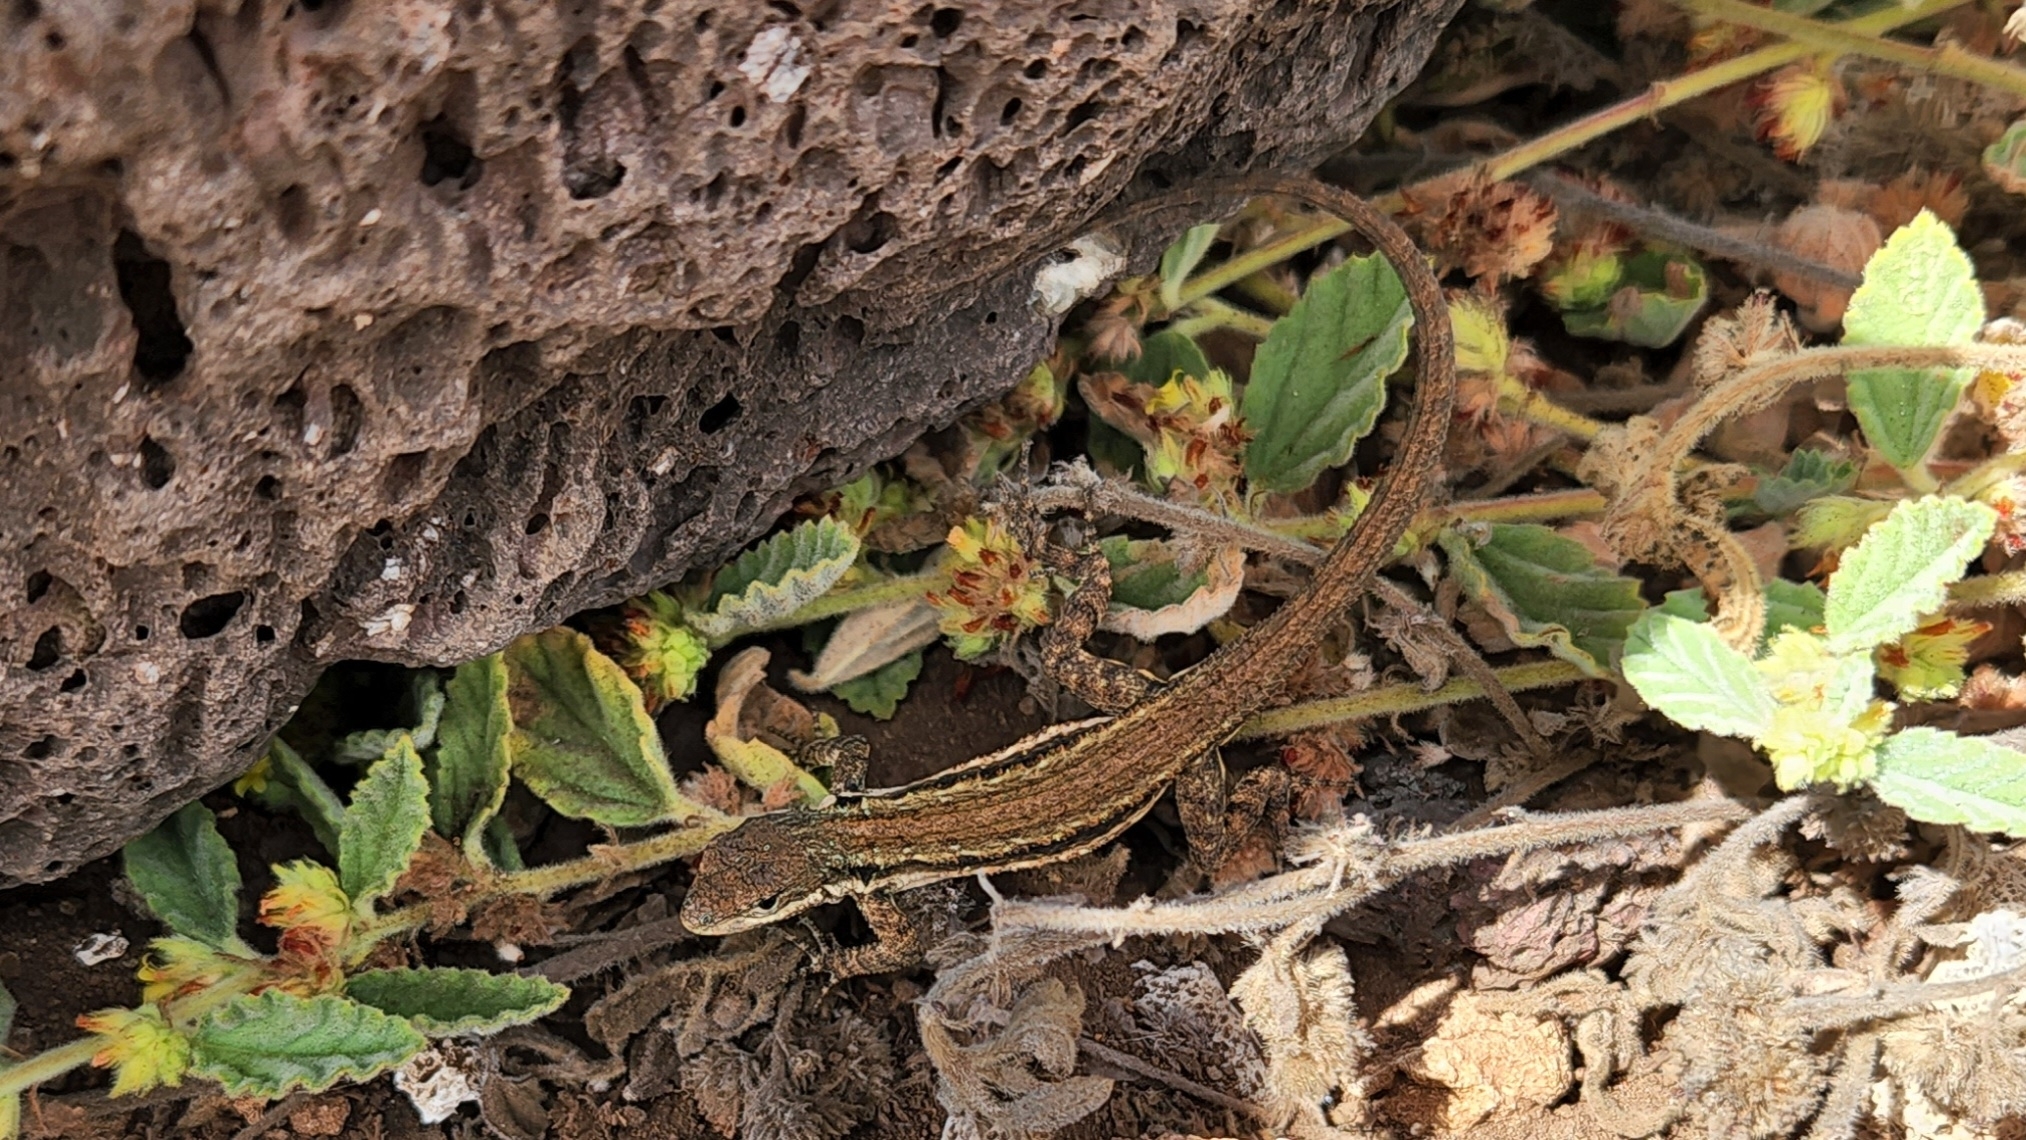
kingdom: Animalia
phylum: Chordata
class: Squamata
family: Phrynosomatidae
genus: Urosaurus
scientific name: Urosaurus clarionensis
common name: Clarion island tree lizard
